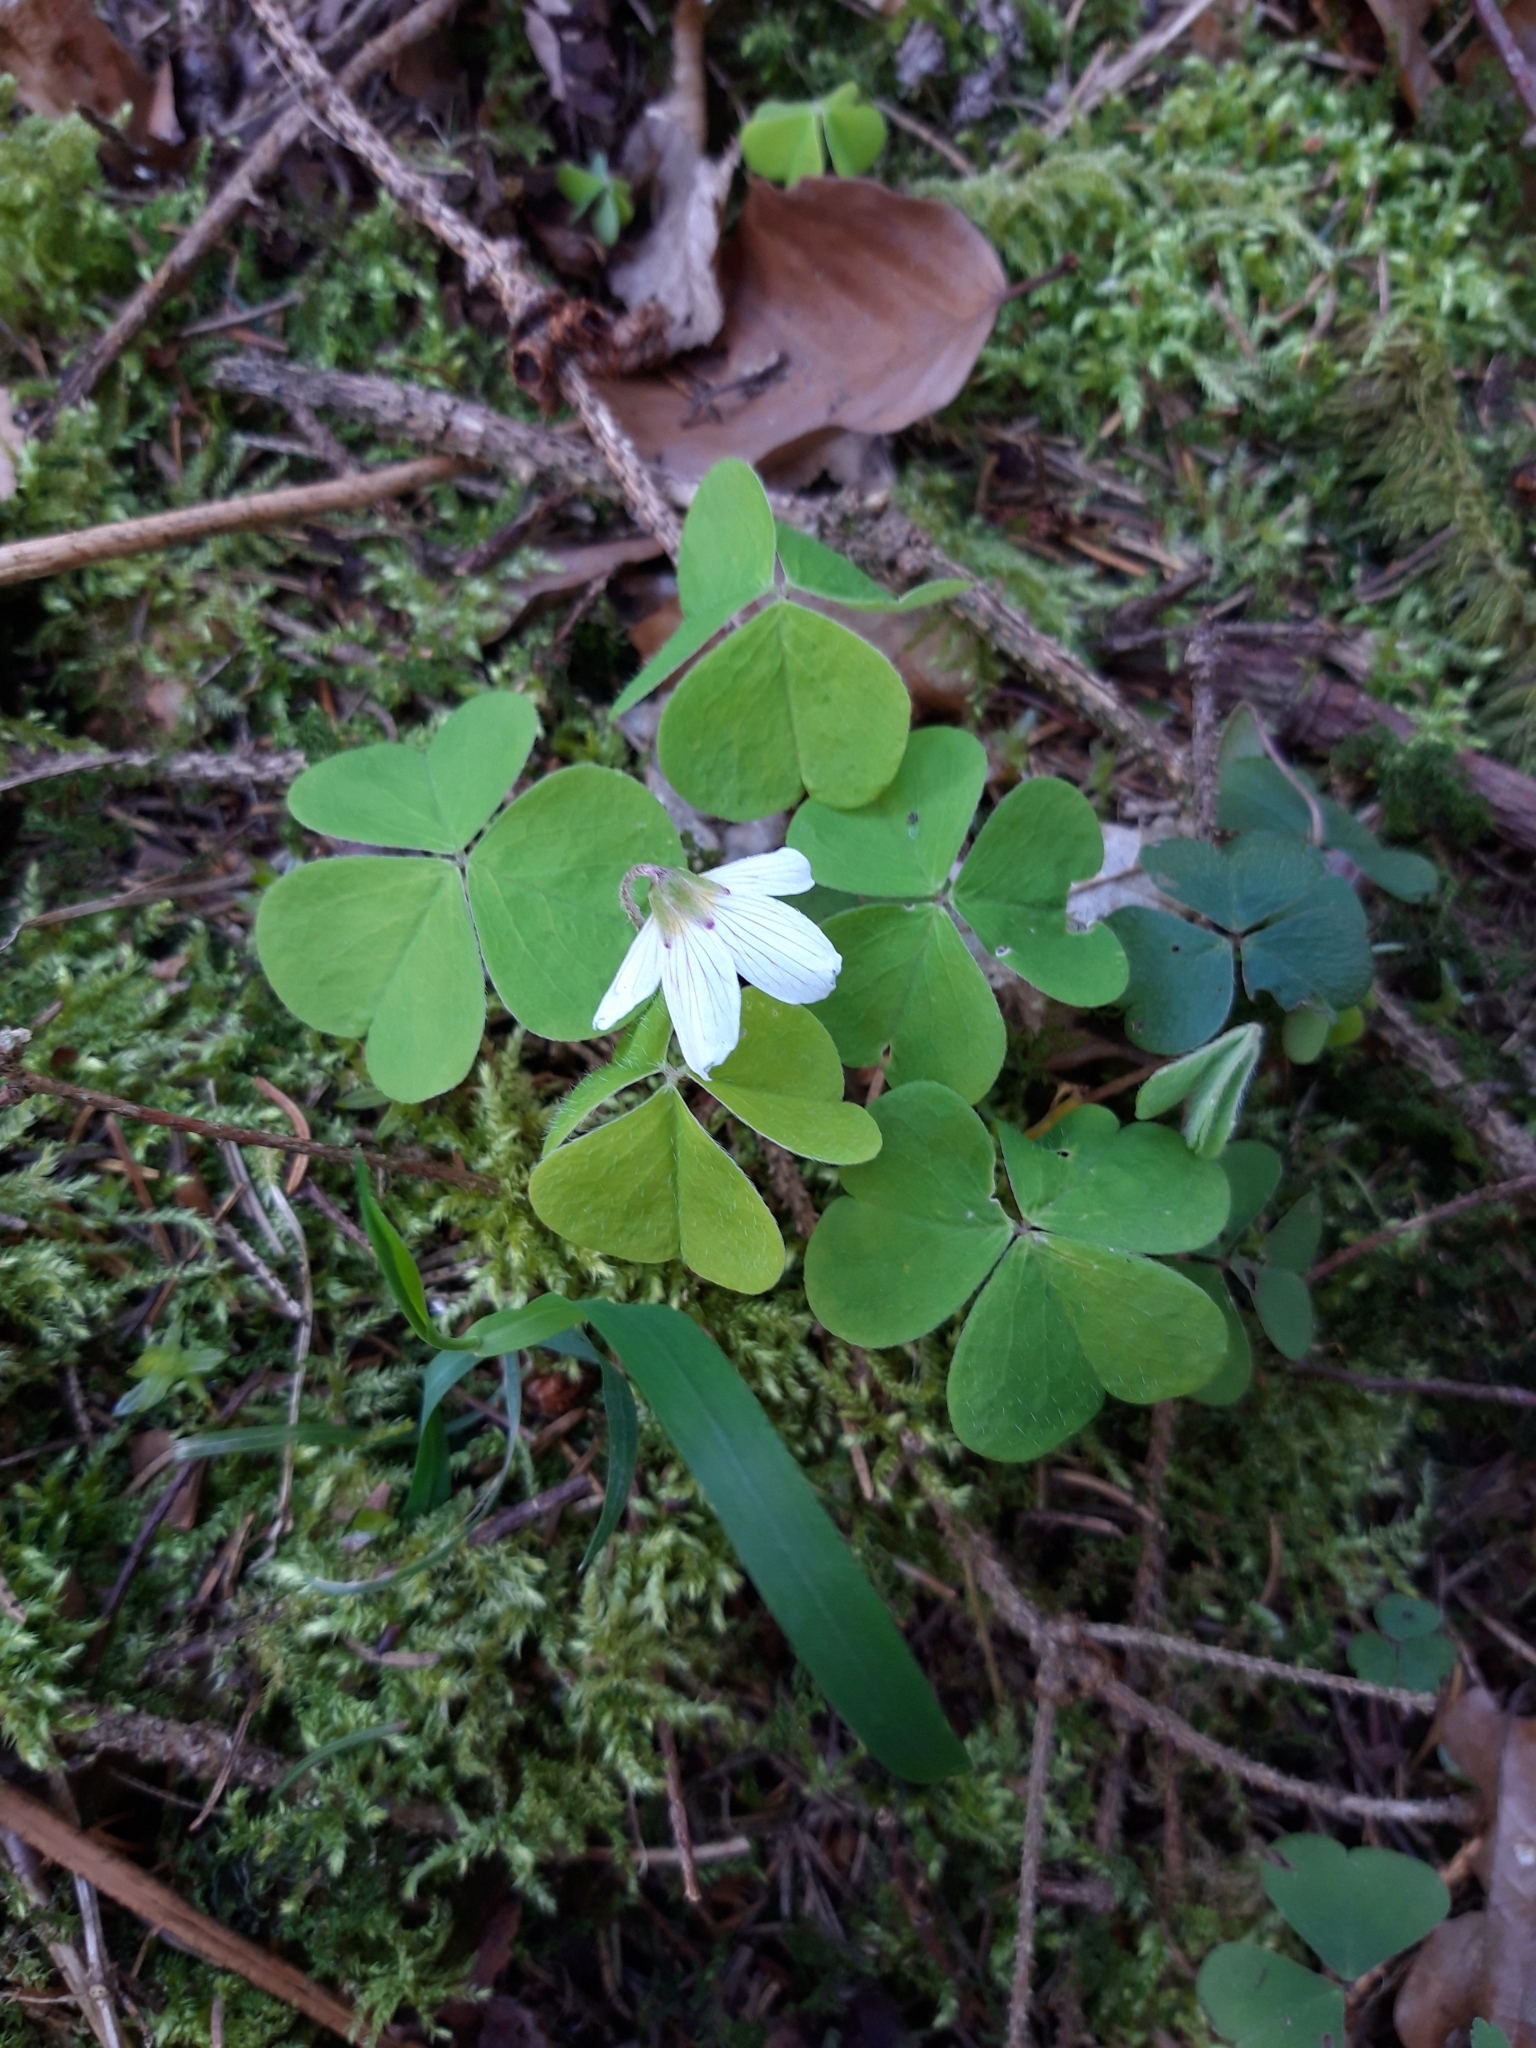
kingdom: Plantae
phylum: Tracheophyta
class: Magnoliopsida
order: Oxalidales
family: Oxalidaceae
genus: Oxalis
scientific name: Oxalis acetosella
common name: Wood-sorrel
